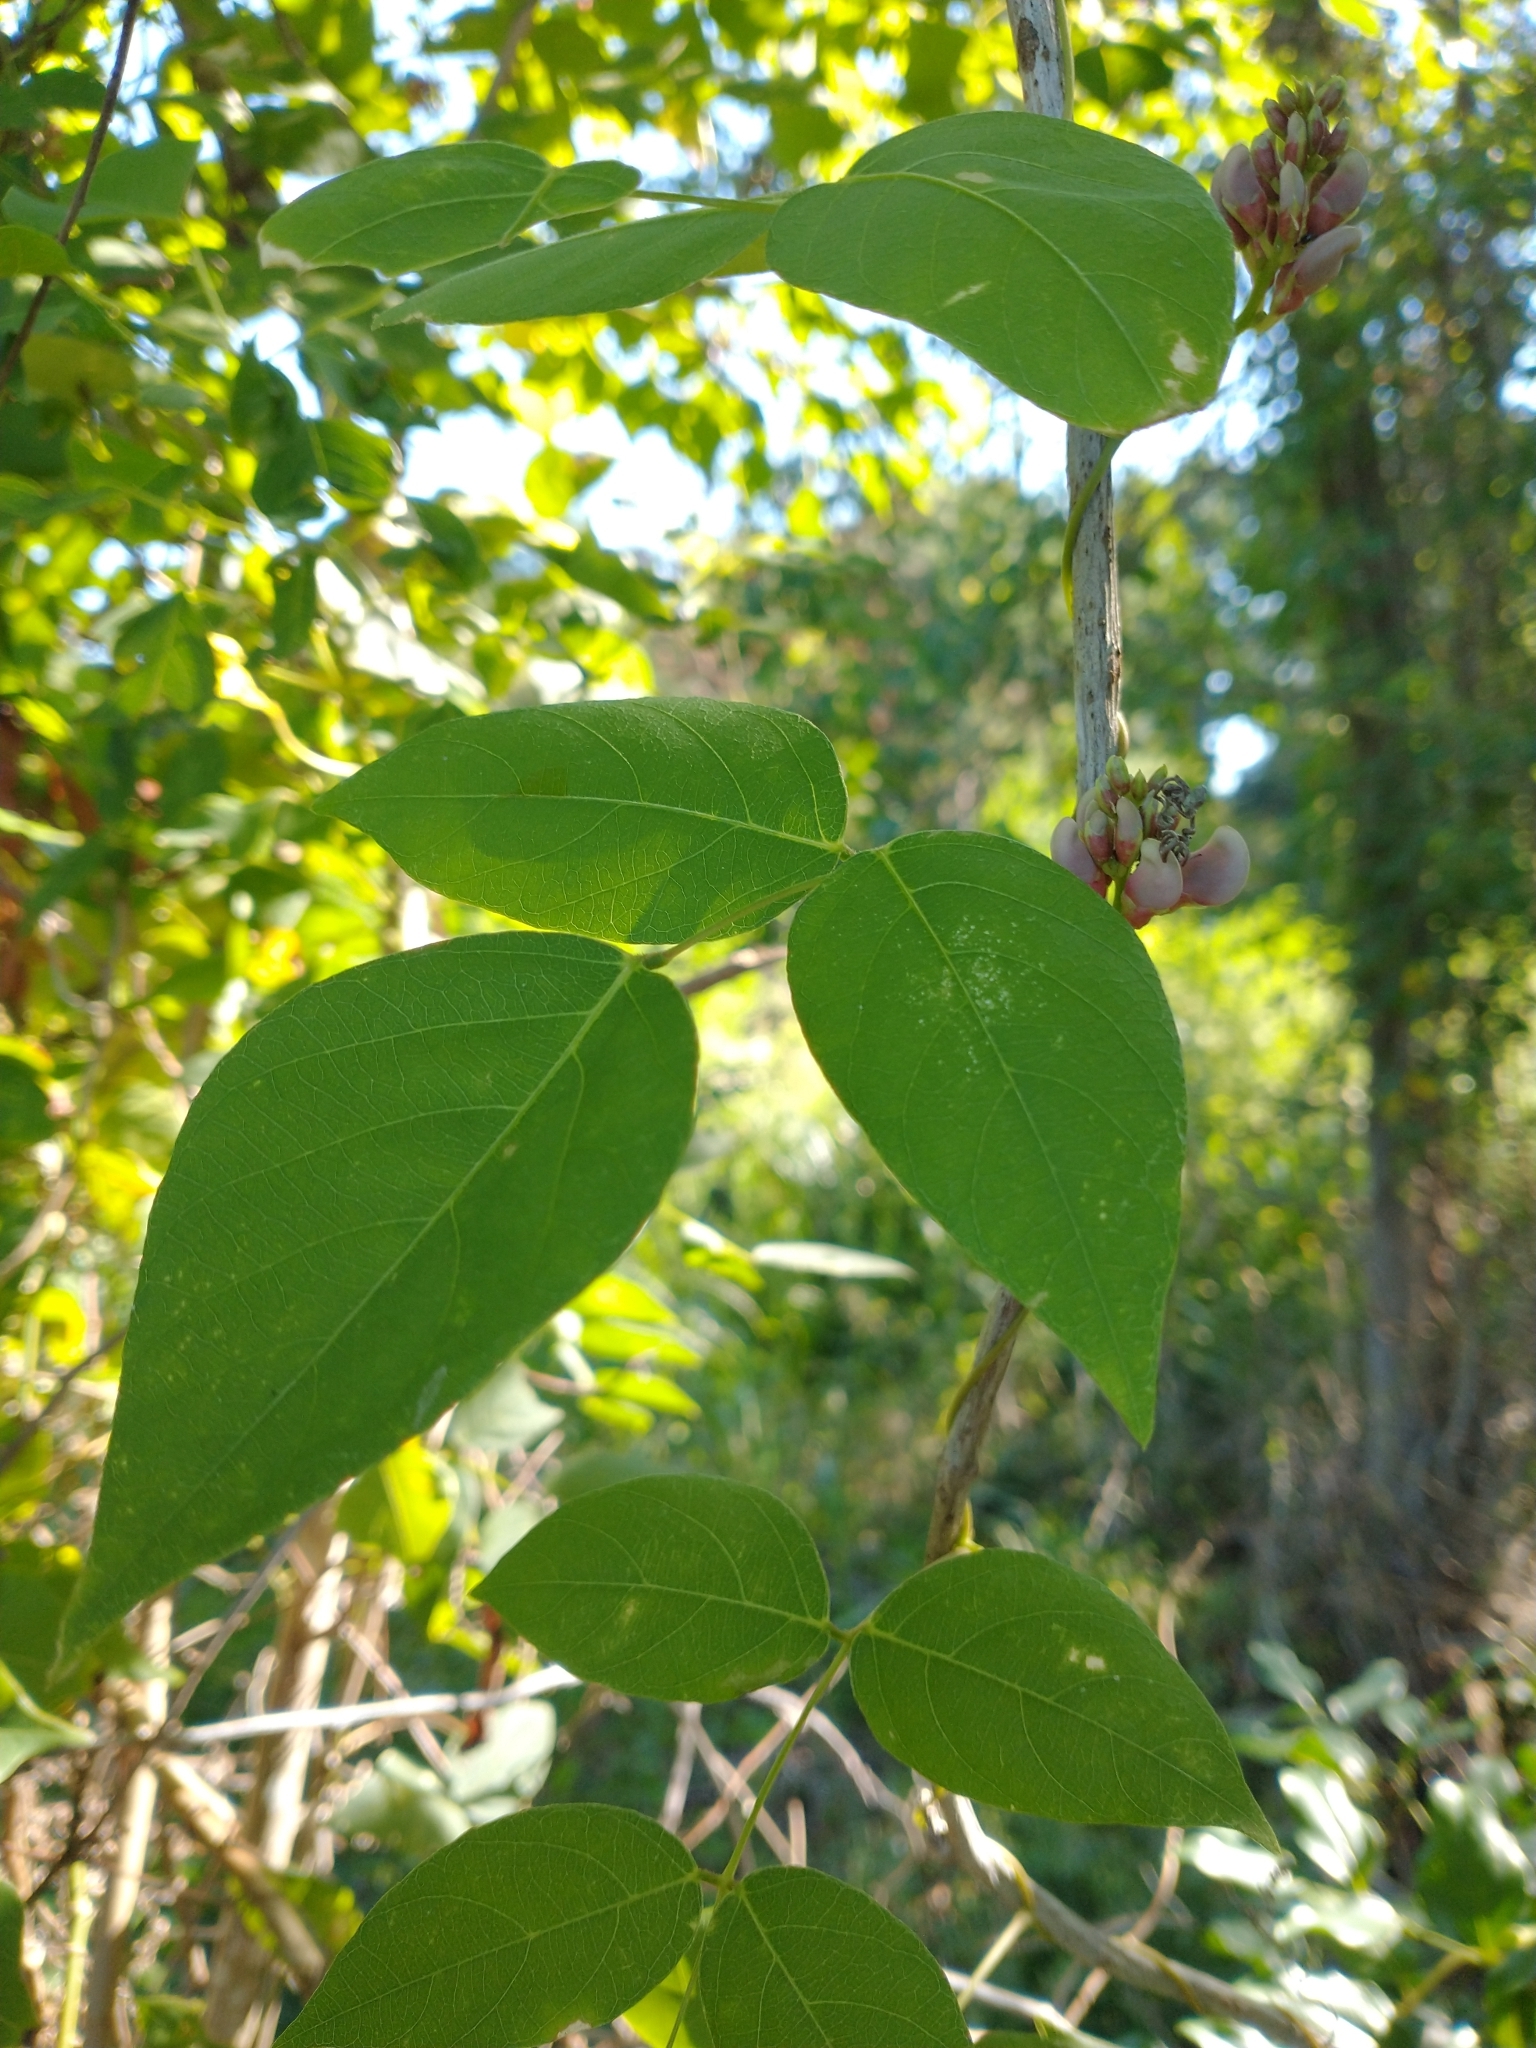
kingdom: Plantae
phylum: Tracheophyta
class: Magnoliopsida
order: Fabales
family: Fabaceae
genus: Apios
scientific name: Apios americana
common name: American potato-bean
